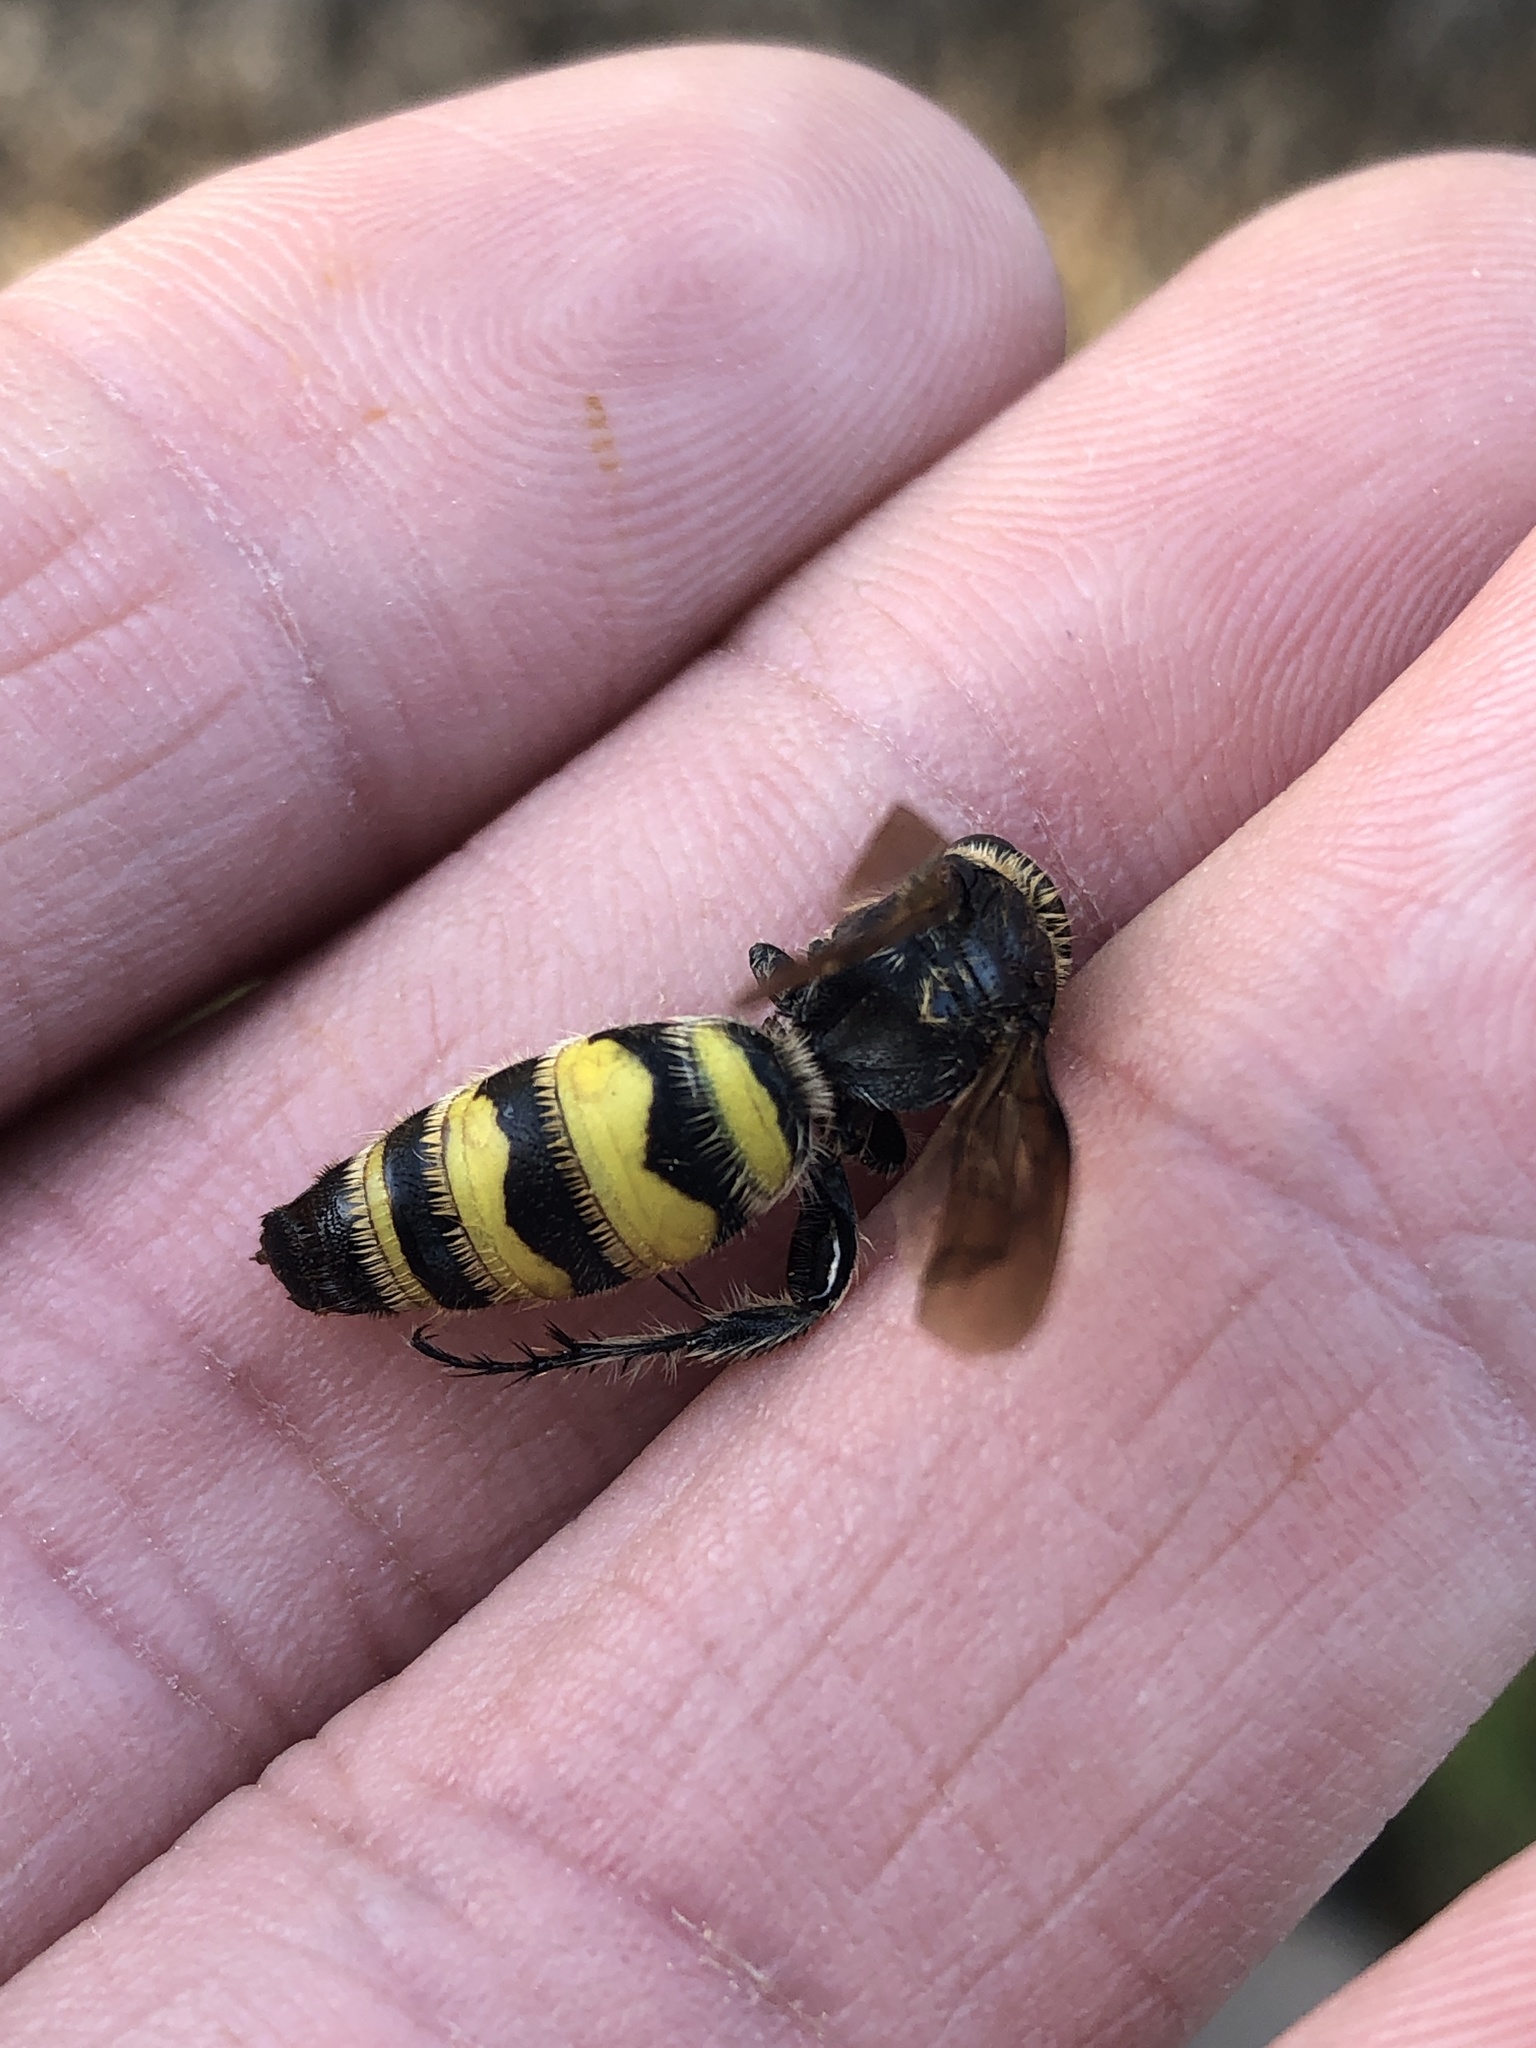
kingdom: Animalia
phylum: Arthropoda
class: Insecta
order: Hymenoptera
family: Scoliidae
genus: Dielis
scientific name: Dielis
